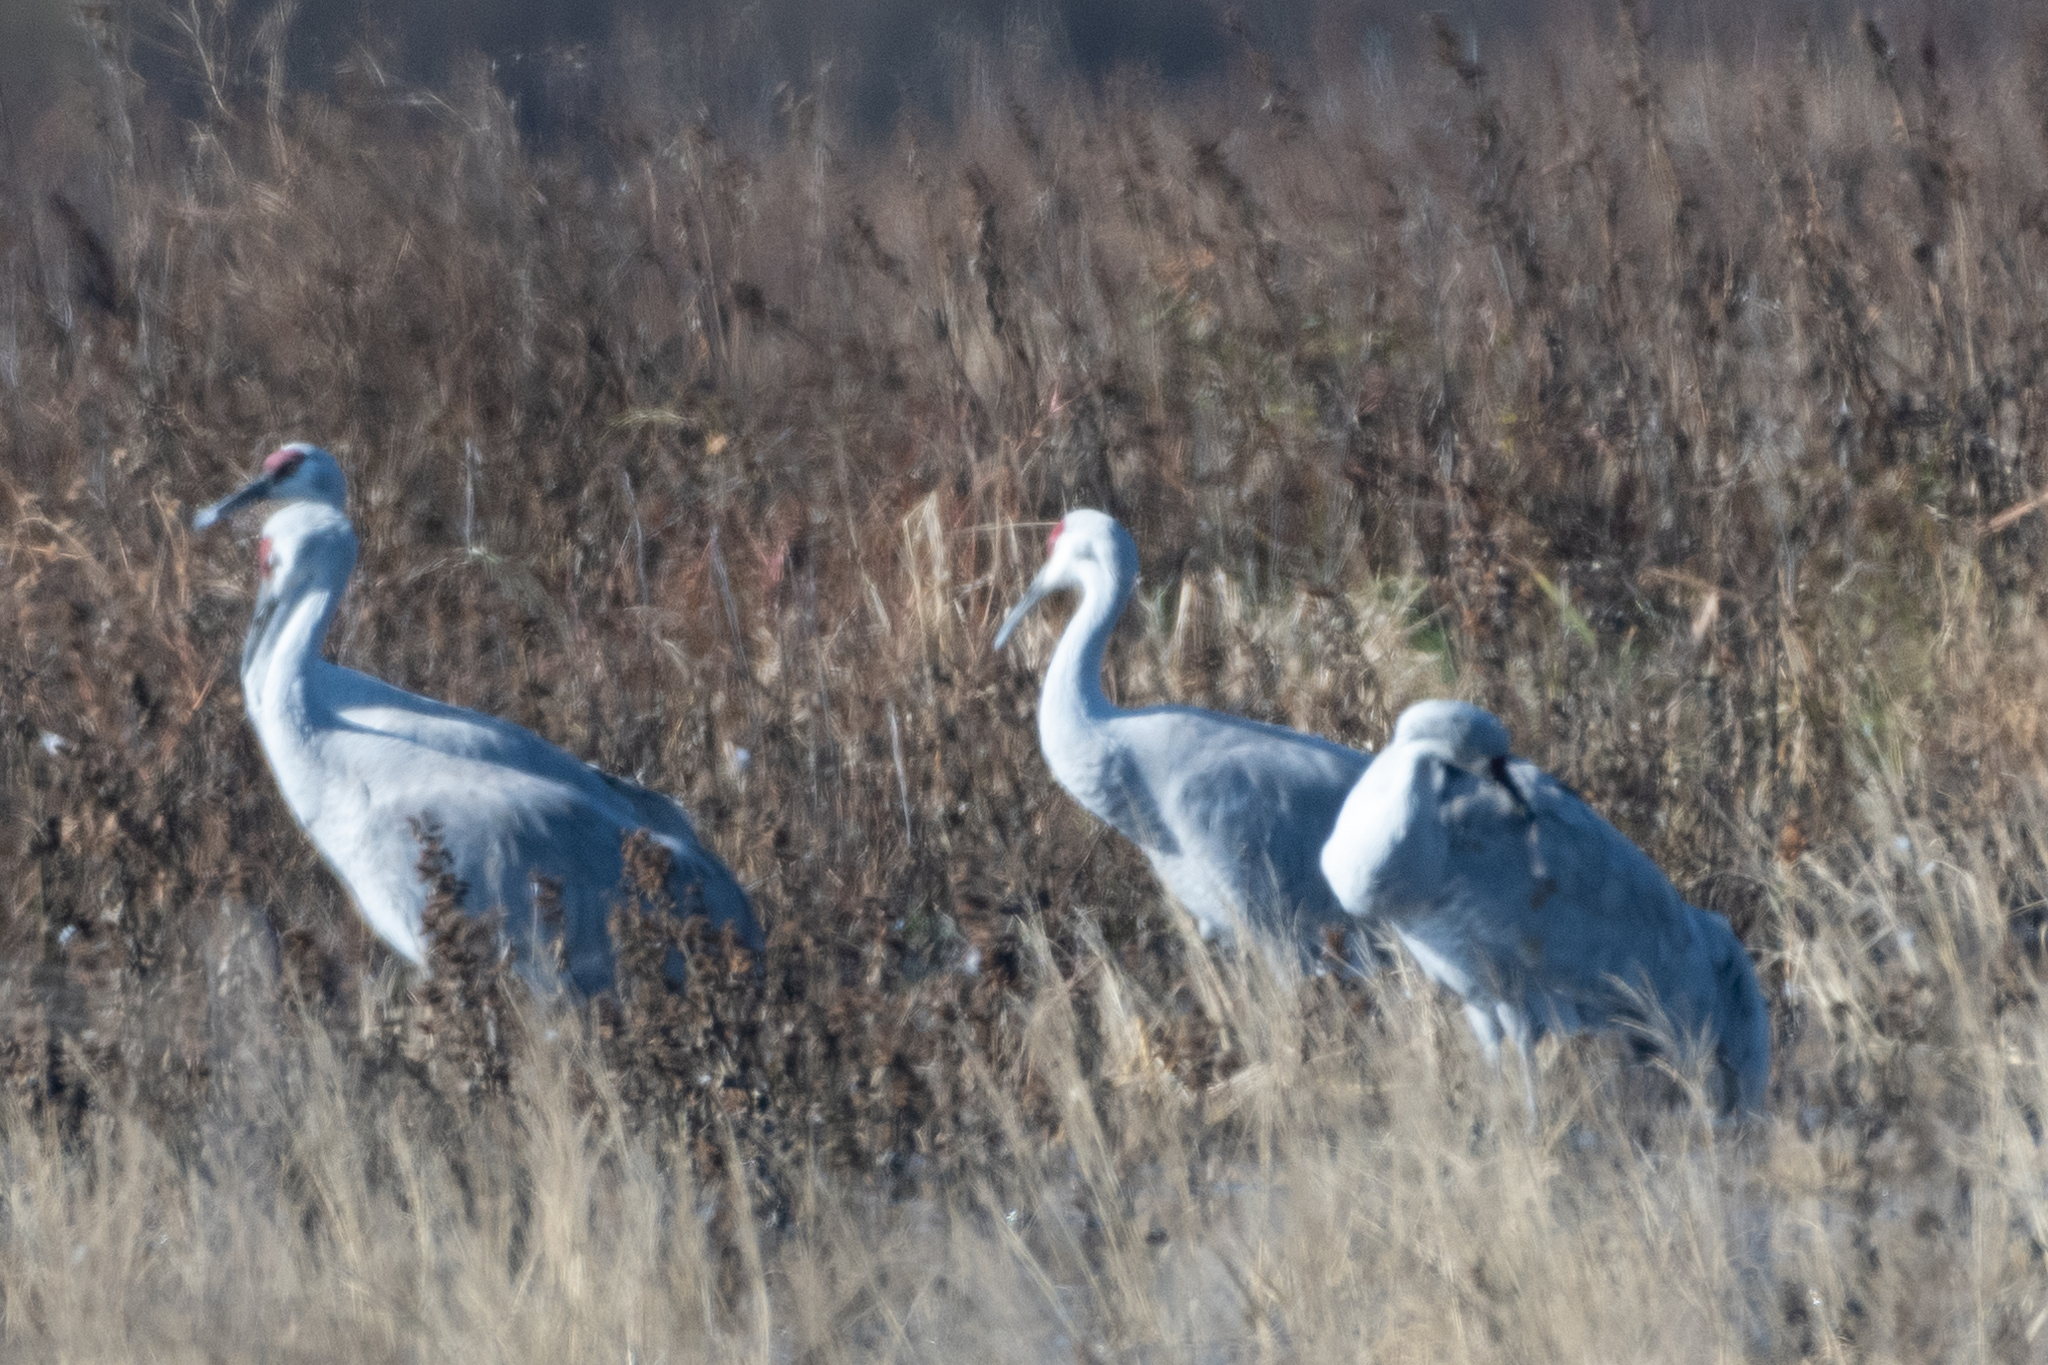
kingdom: Animalia
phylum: Chordata
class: Aves
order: Gruiformes
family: Gruidae
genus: Grus
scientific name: Grus canadensis
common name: Sandhill crane
